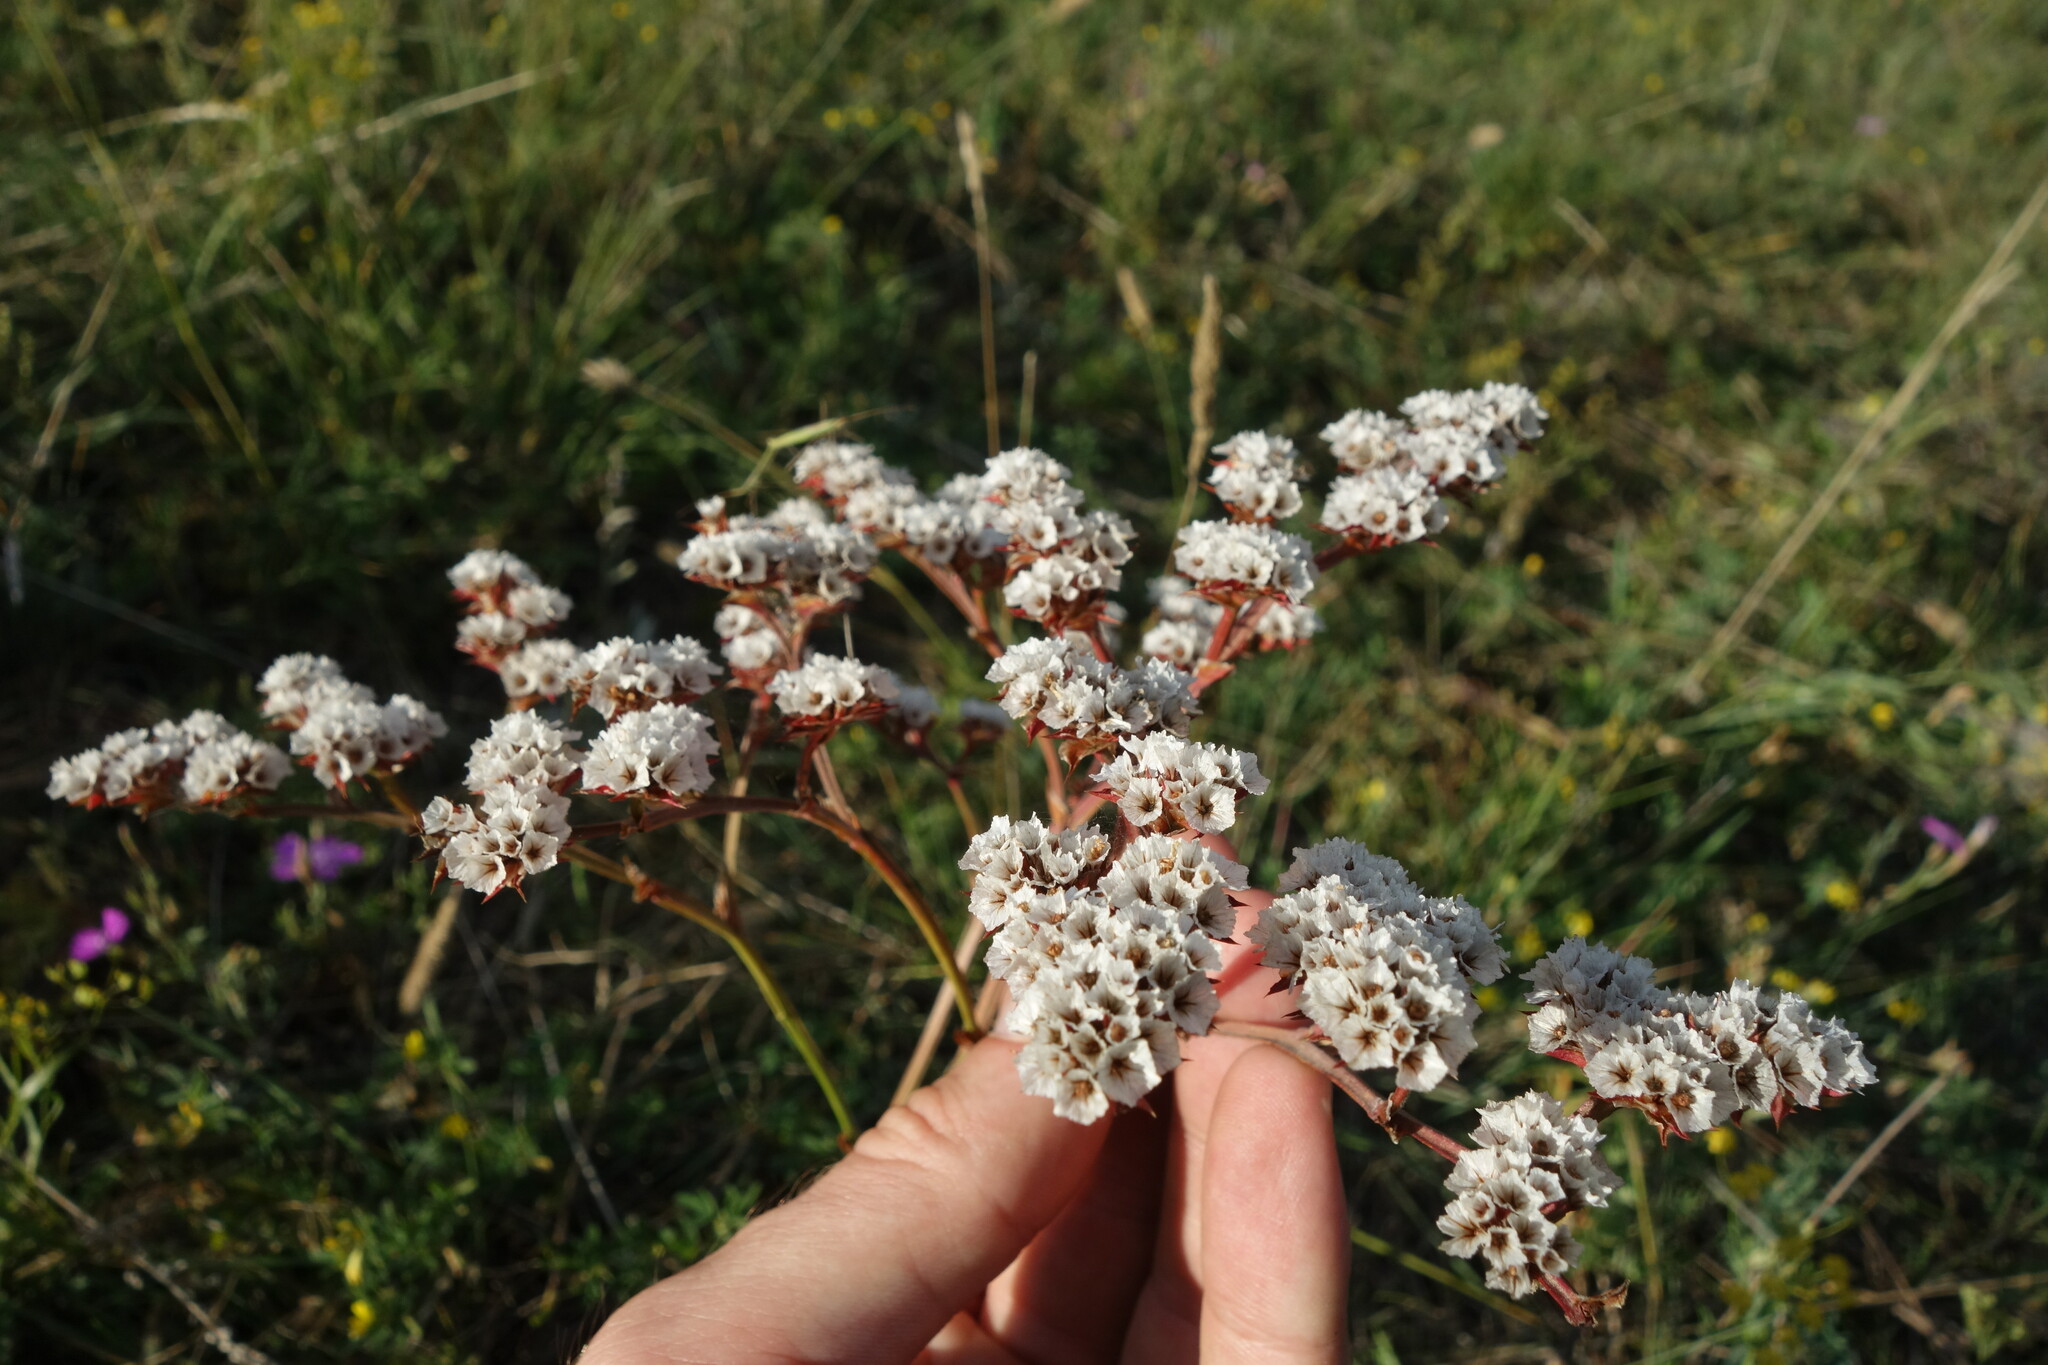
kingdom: Plantae
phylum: Tracheophyta
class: Magnoliopsida
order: Caryophyllales
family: Plumbaginaceae
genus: Goniolimon
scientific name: Goniolimon speciosum
